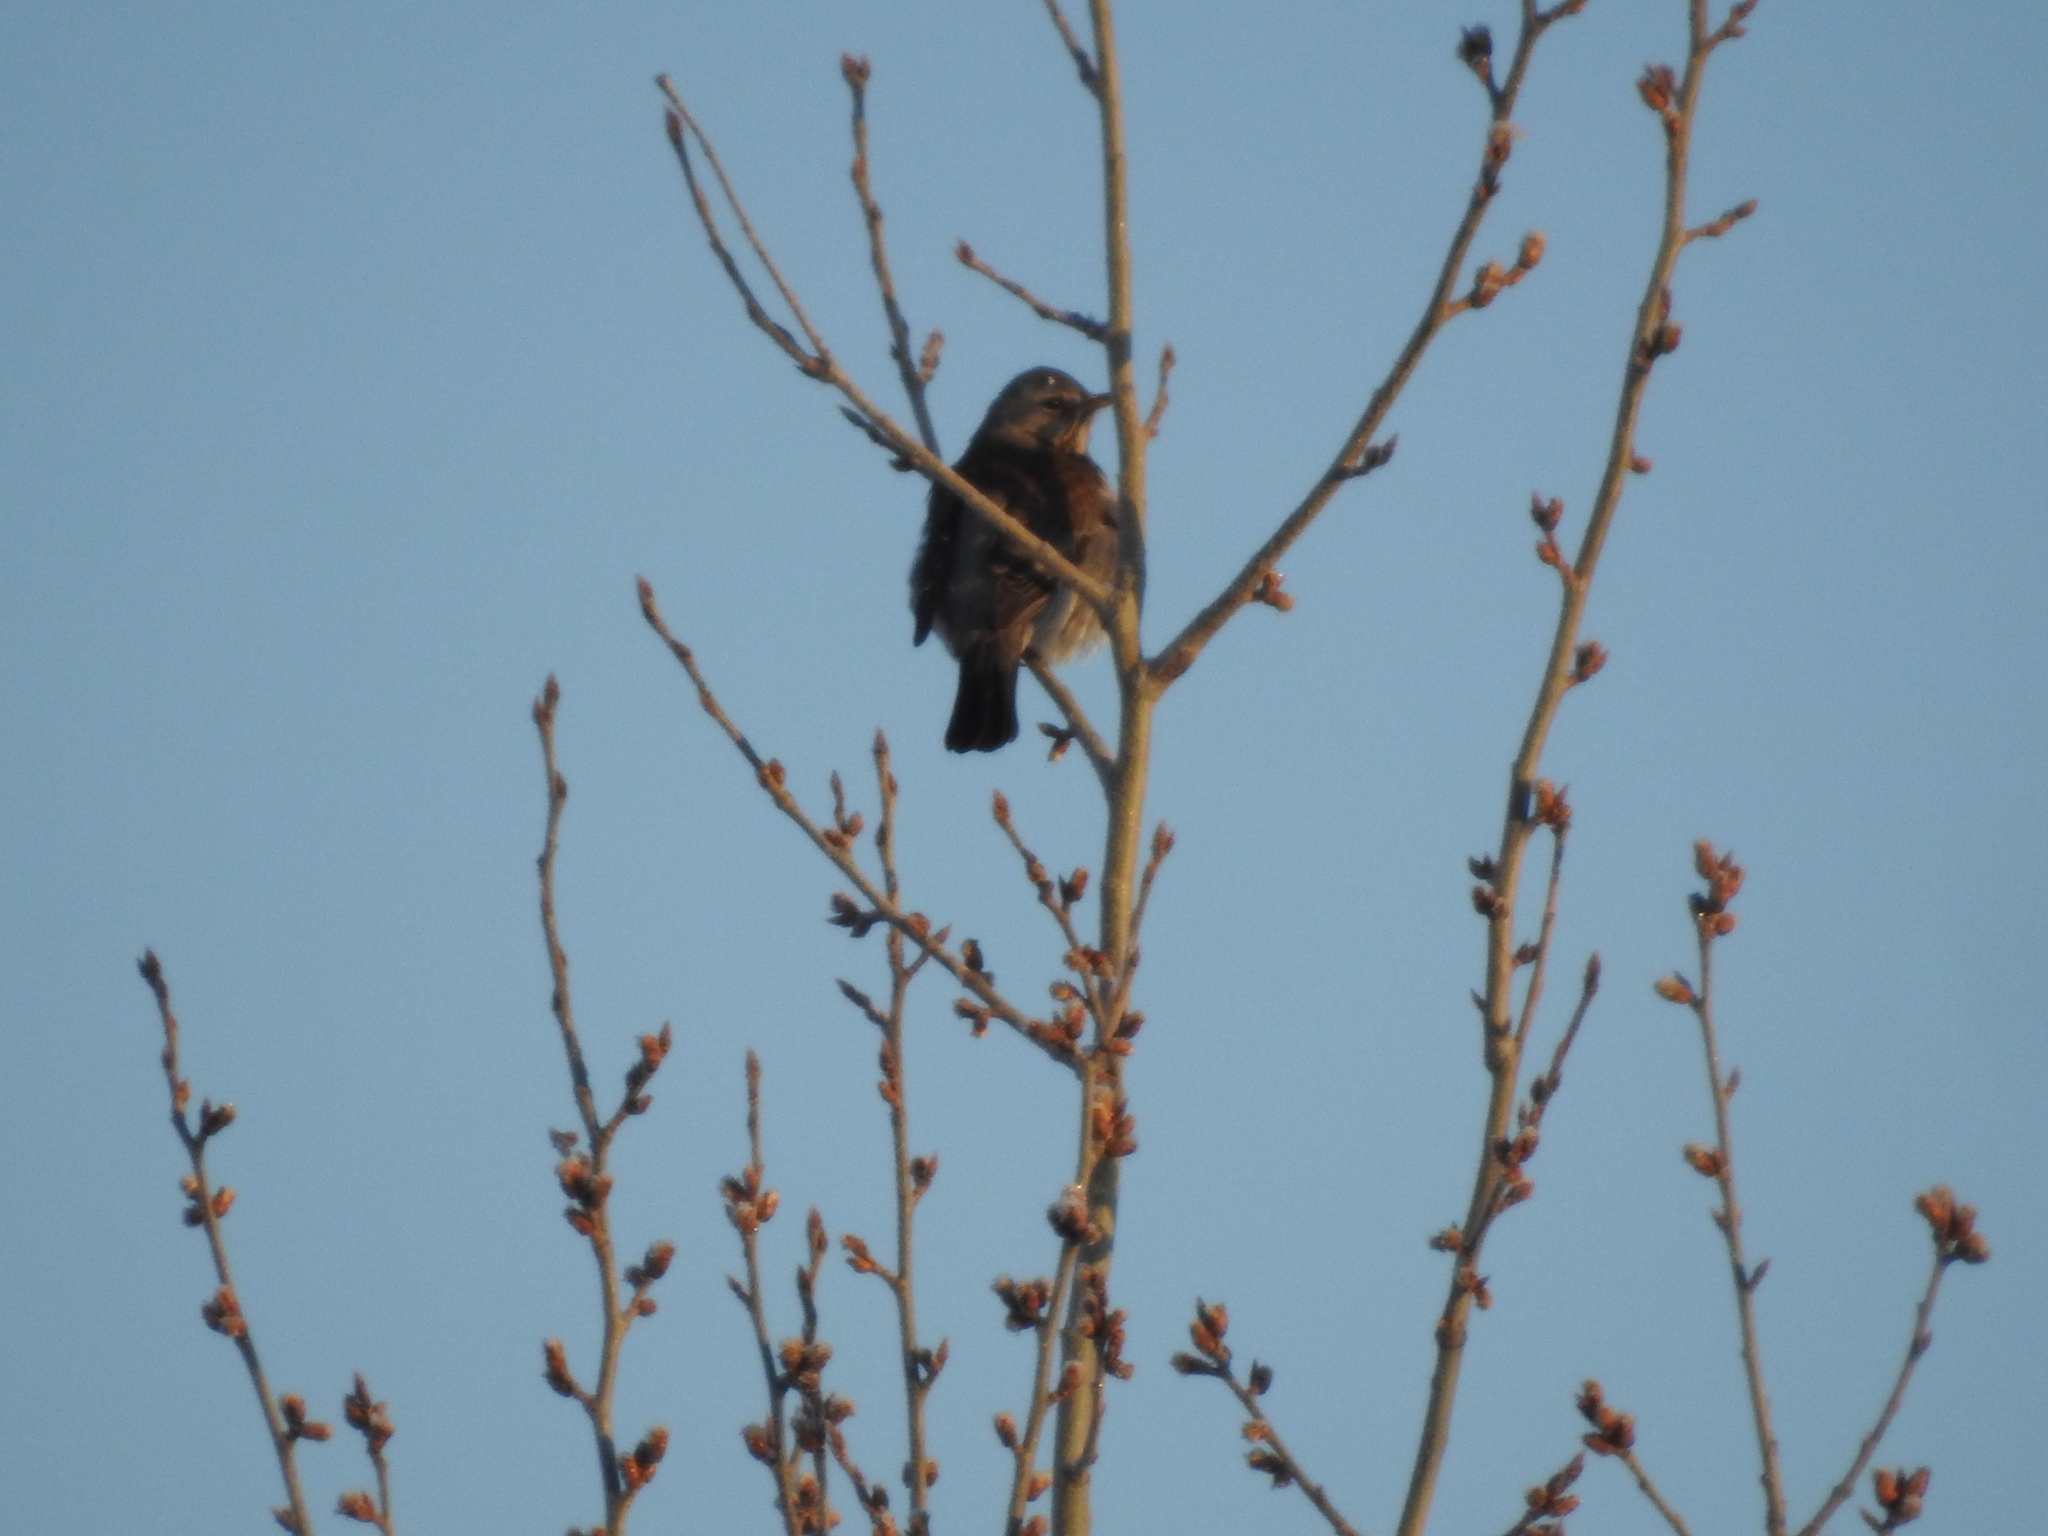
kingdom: Animalia
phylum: Chordata
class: Aves
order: Passeriformes
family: Turdidae
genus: Turdus
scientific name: Turdus pilaris
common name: Fieldfare
